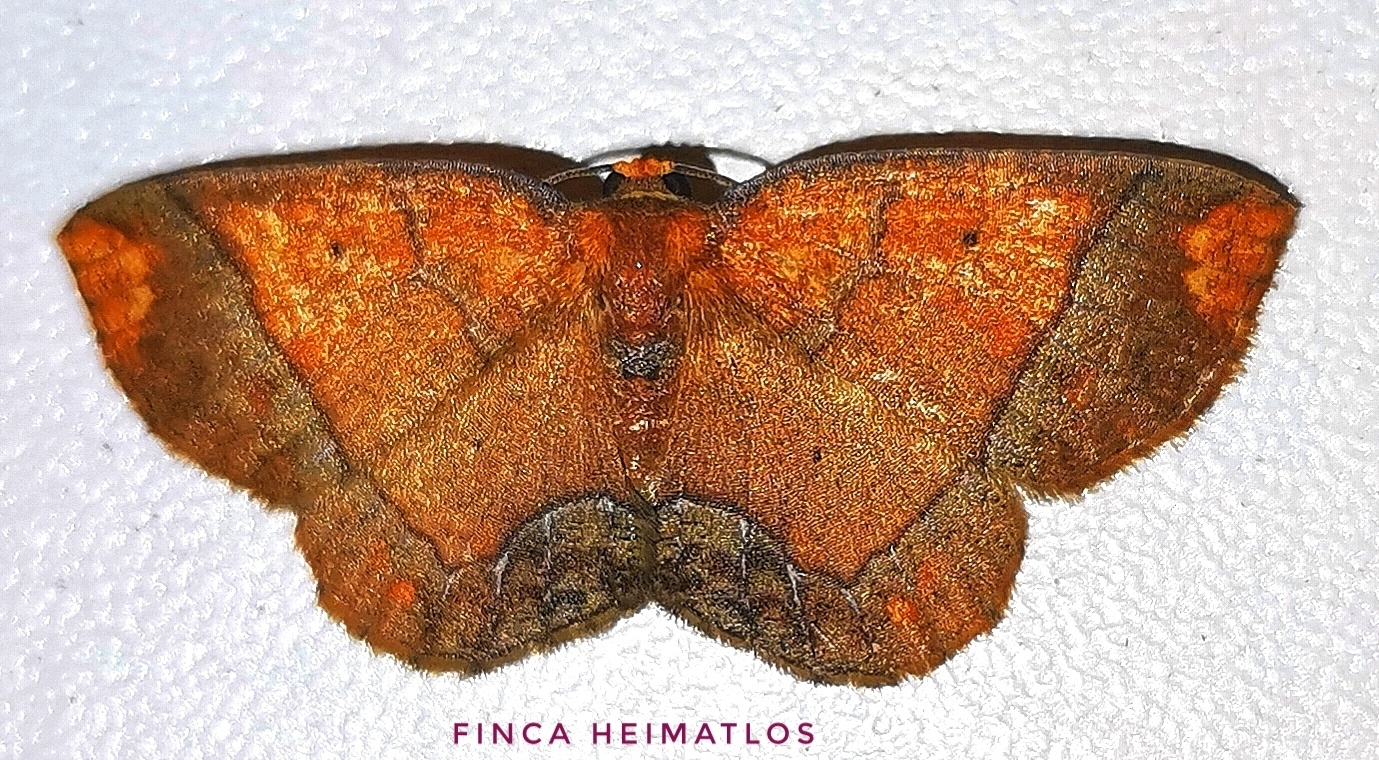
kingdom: Animalia
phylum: Arthropoda
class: Insecta
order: Lepidoptera
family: Geometridae
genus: Melinoides
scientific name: Melinoides detersaria
